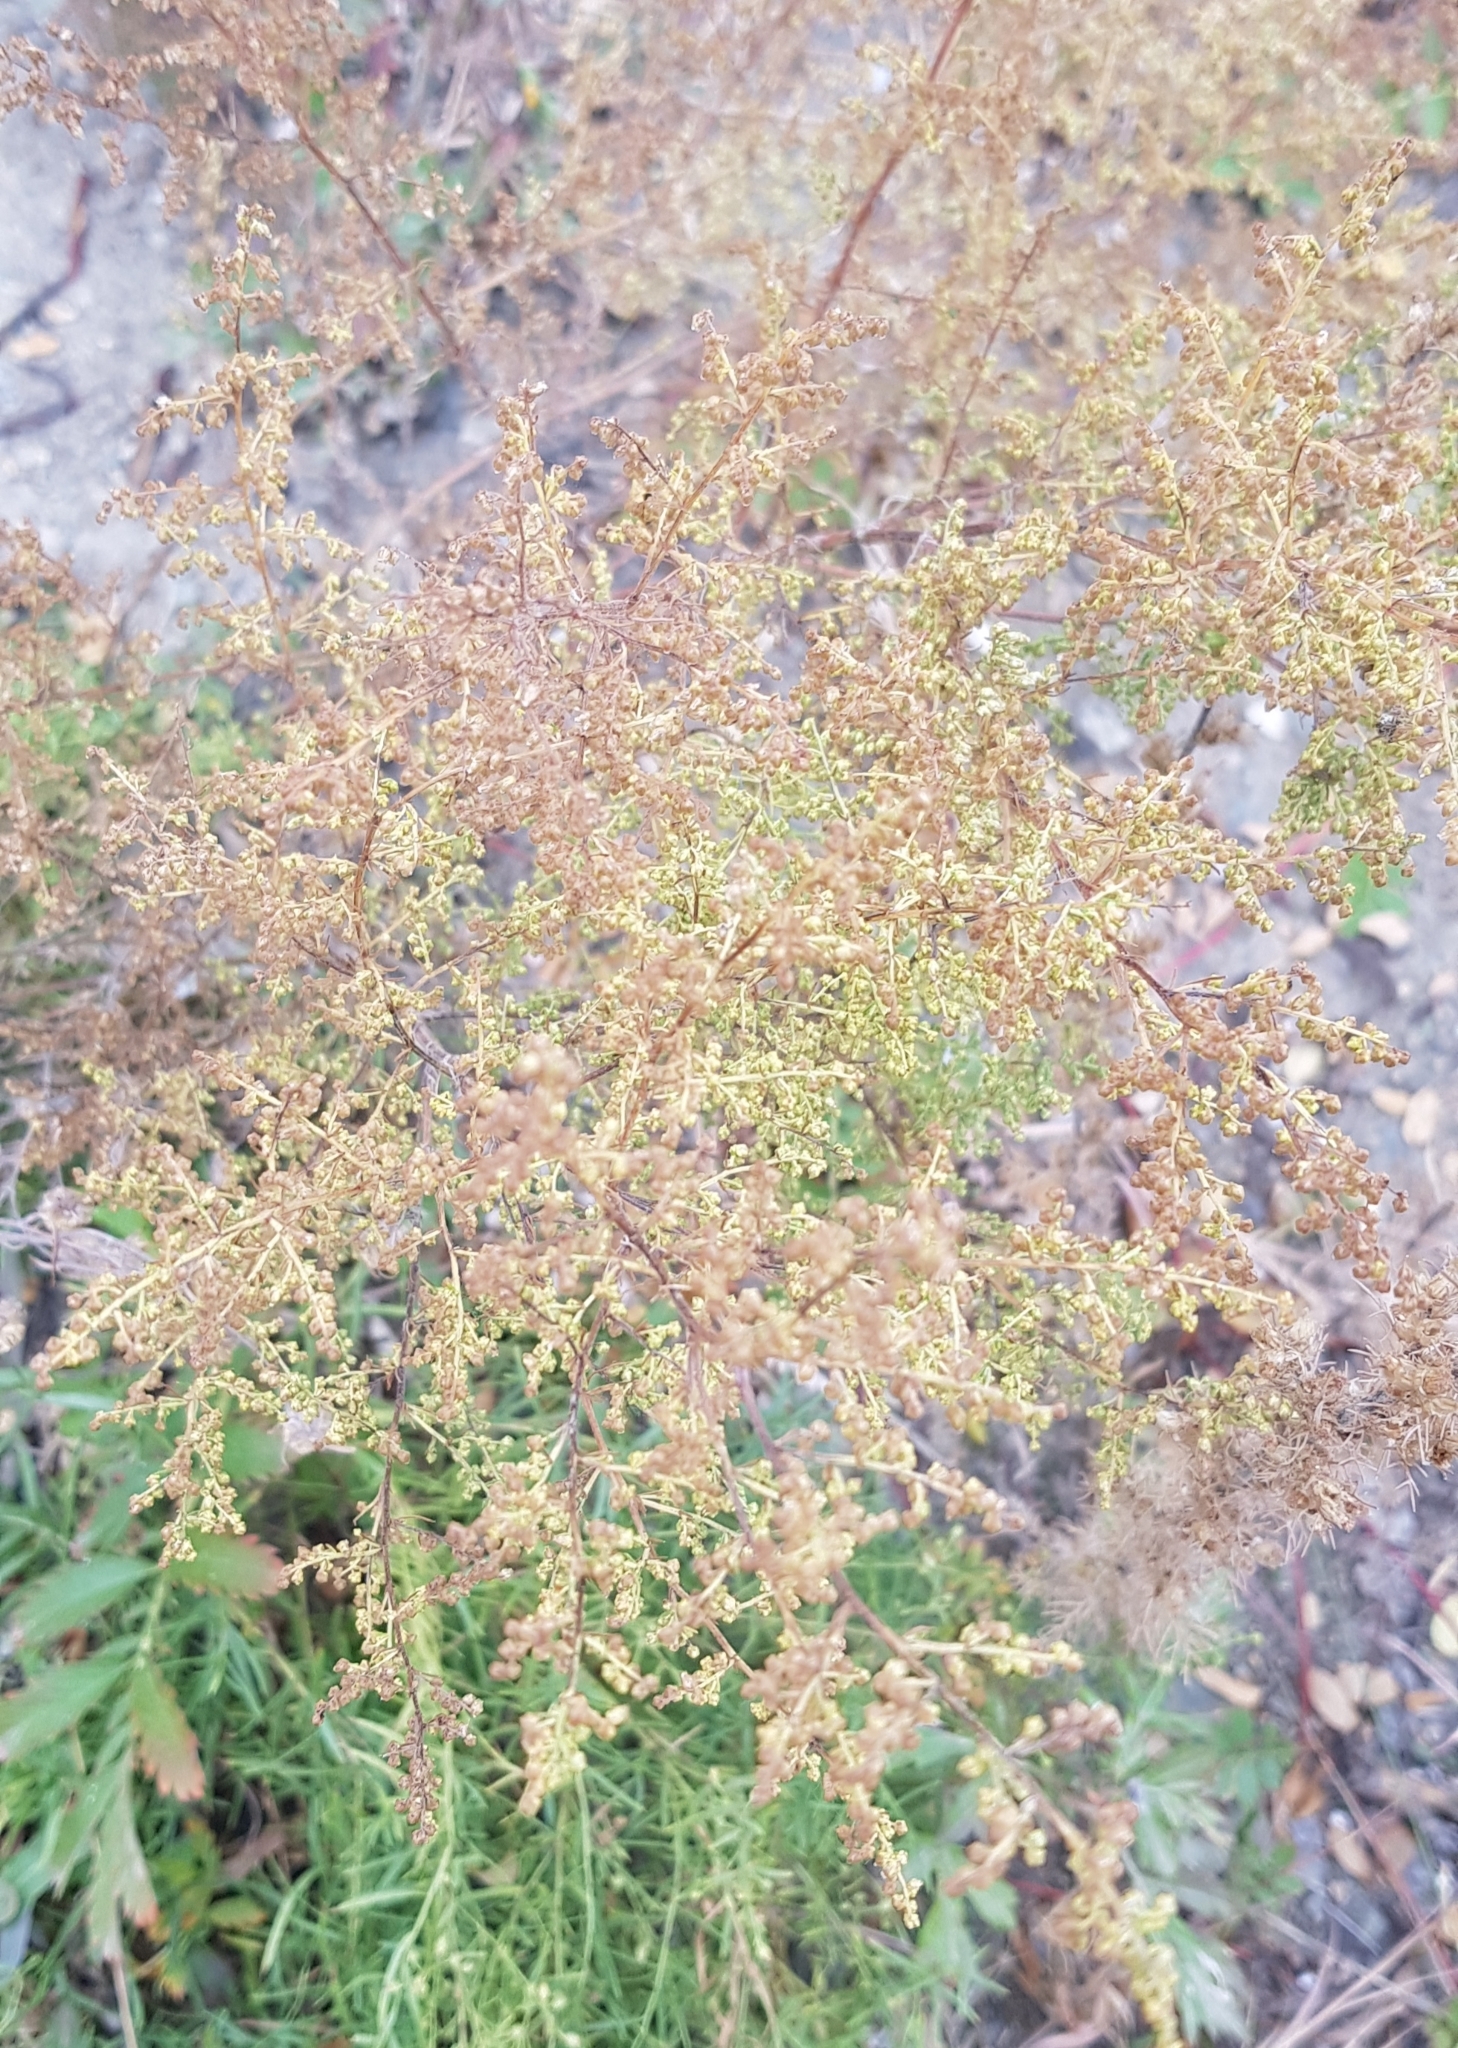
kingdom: Plantae
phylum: Tracheophyta
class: Magnoliopsida
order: Asterales
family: Asteraceae
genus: Artemisia
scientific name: Artemisia scoparia
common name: Redstem wormwood
